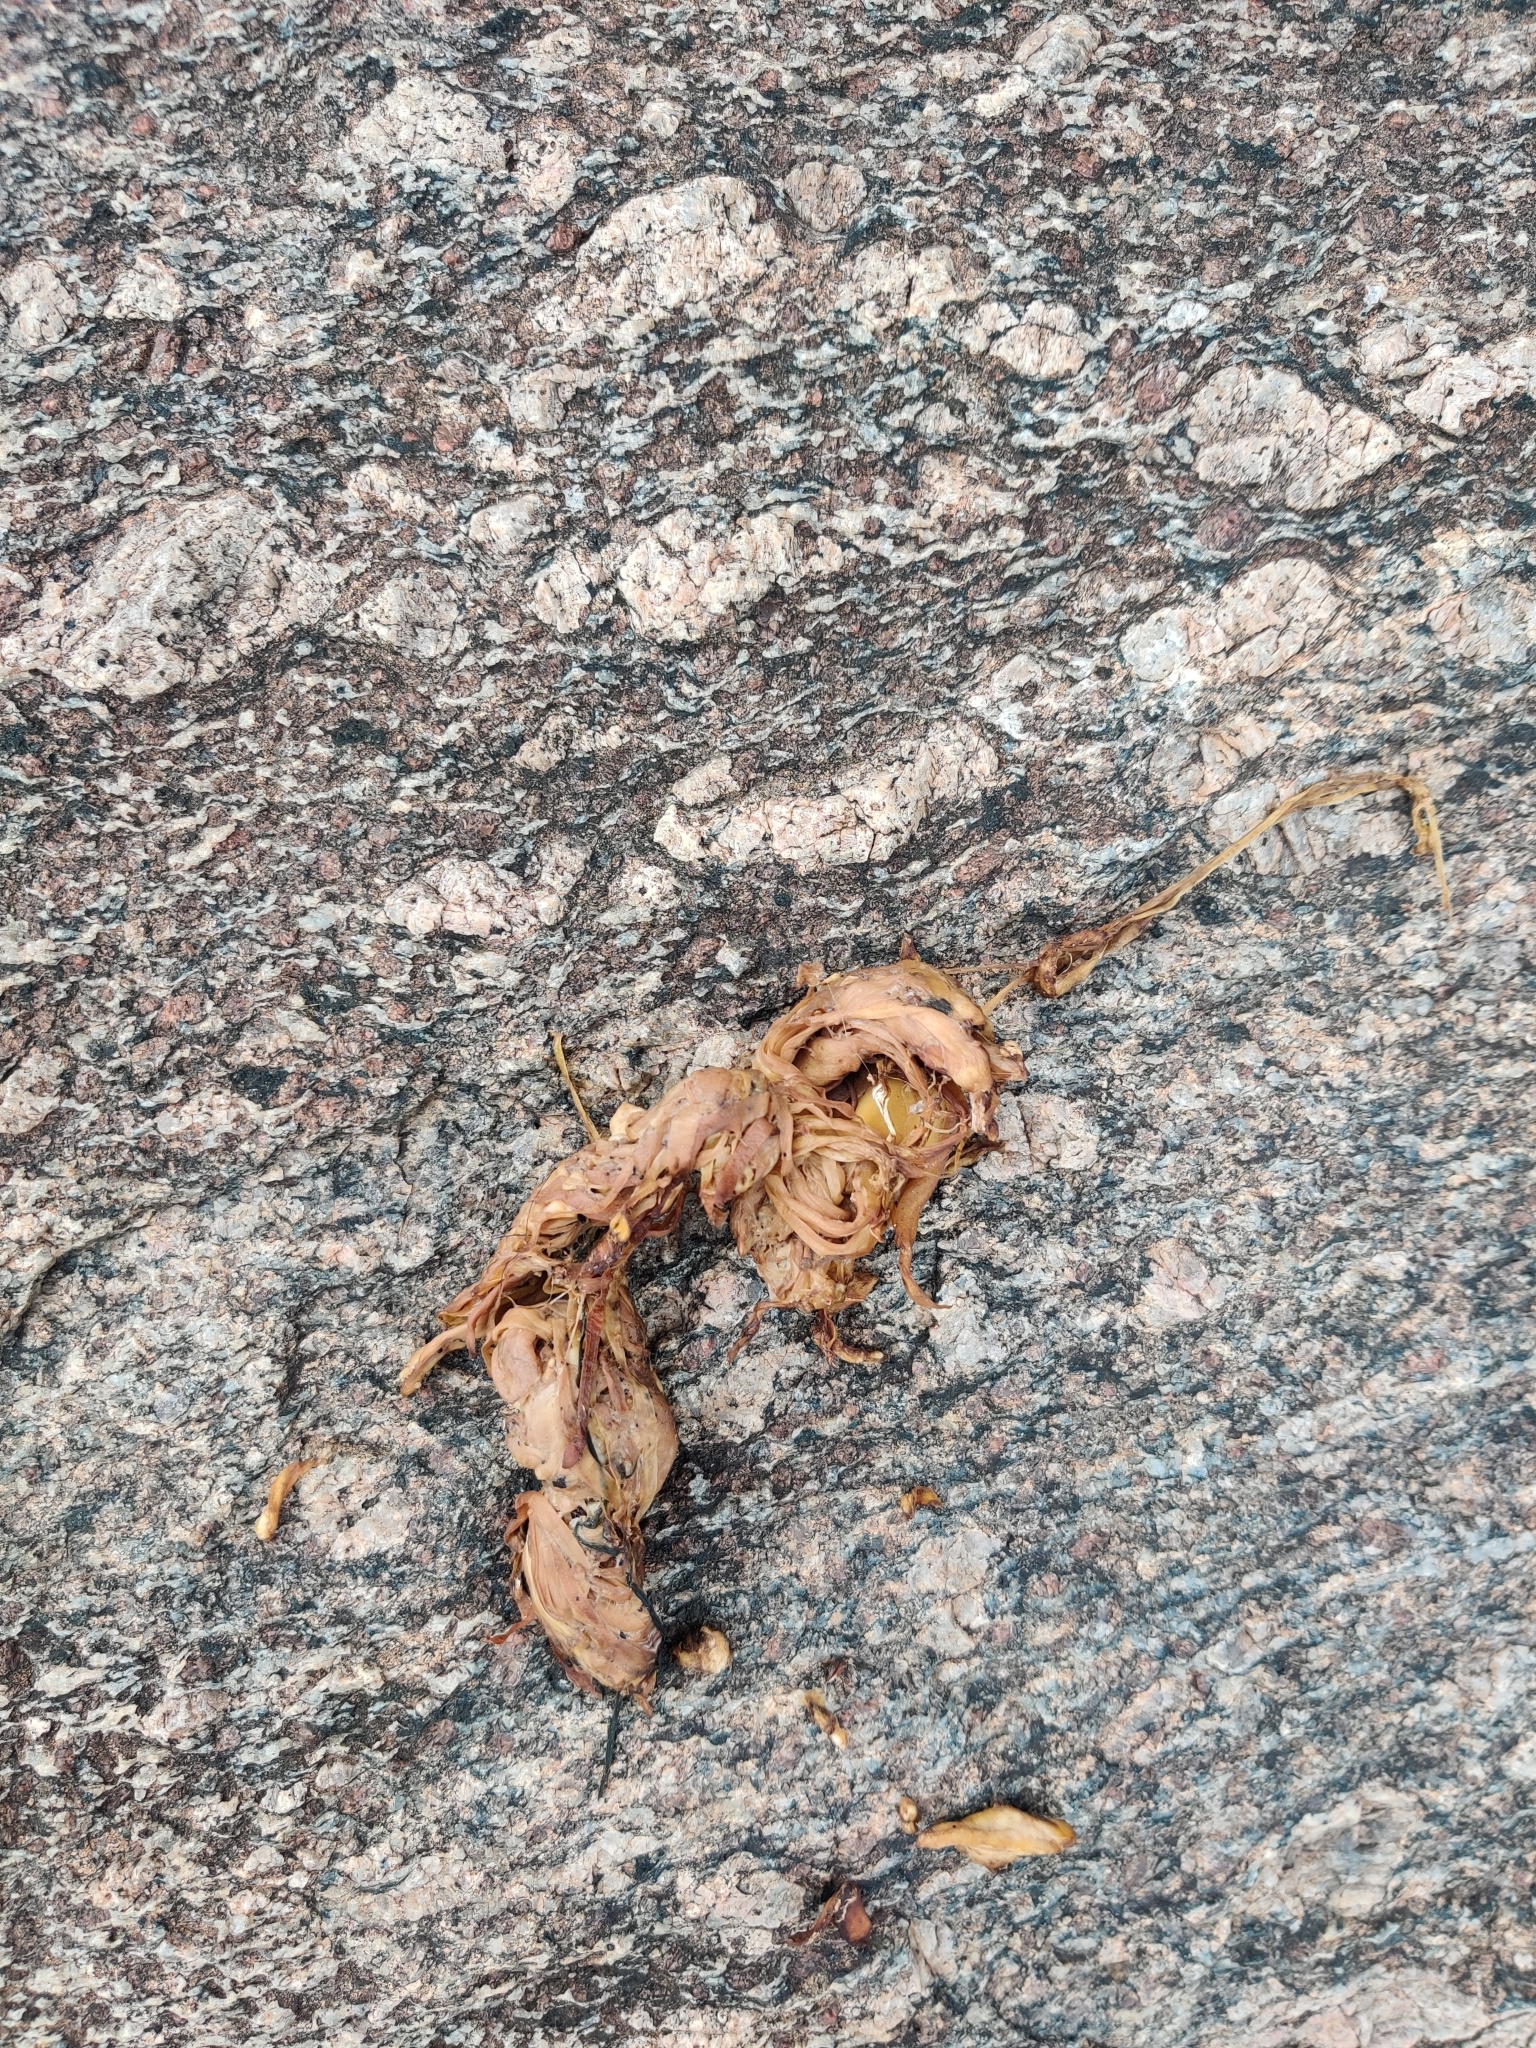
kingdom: Animalia
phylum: Chordata
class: Mammalia
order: Carnivora
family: Ursidae
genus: Melursus
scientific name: Melursus ursinus
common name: Sloth bear
